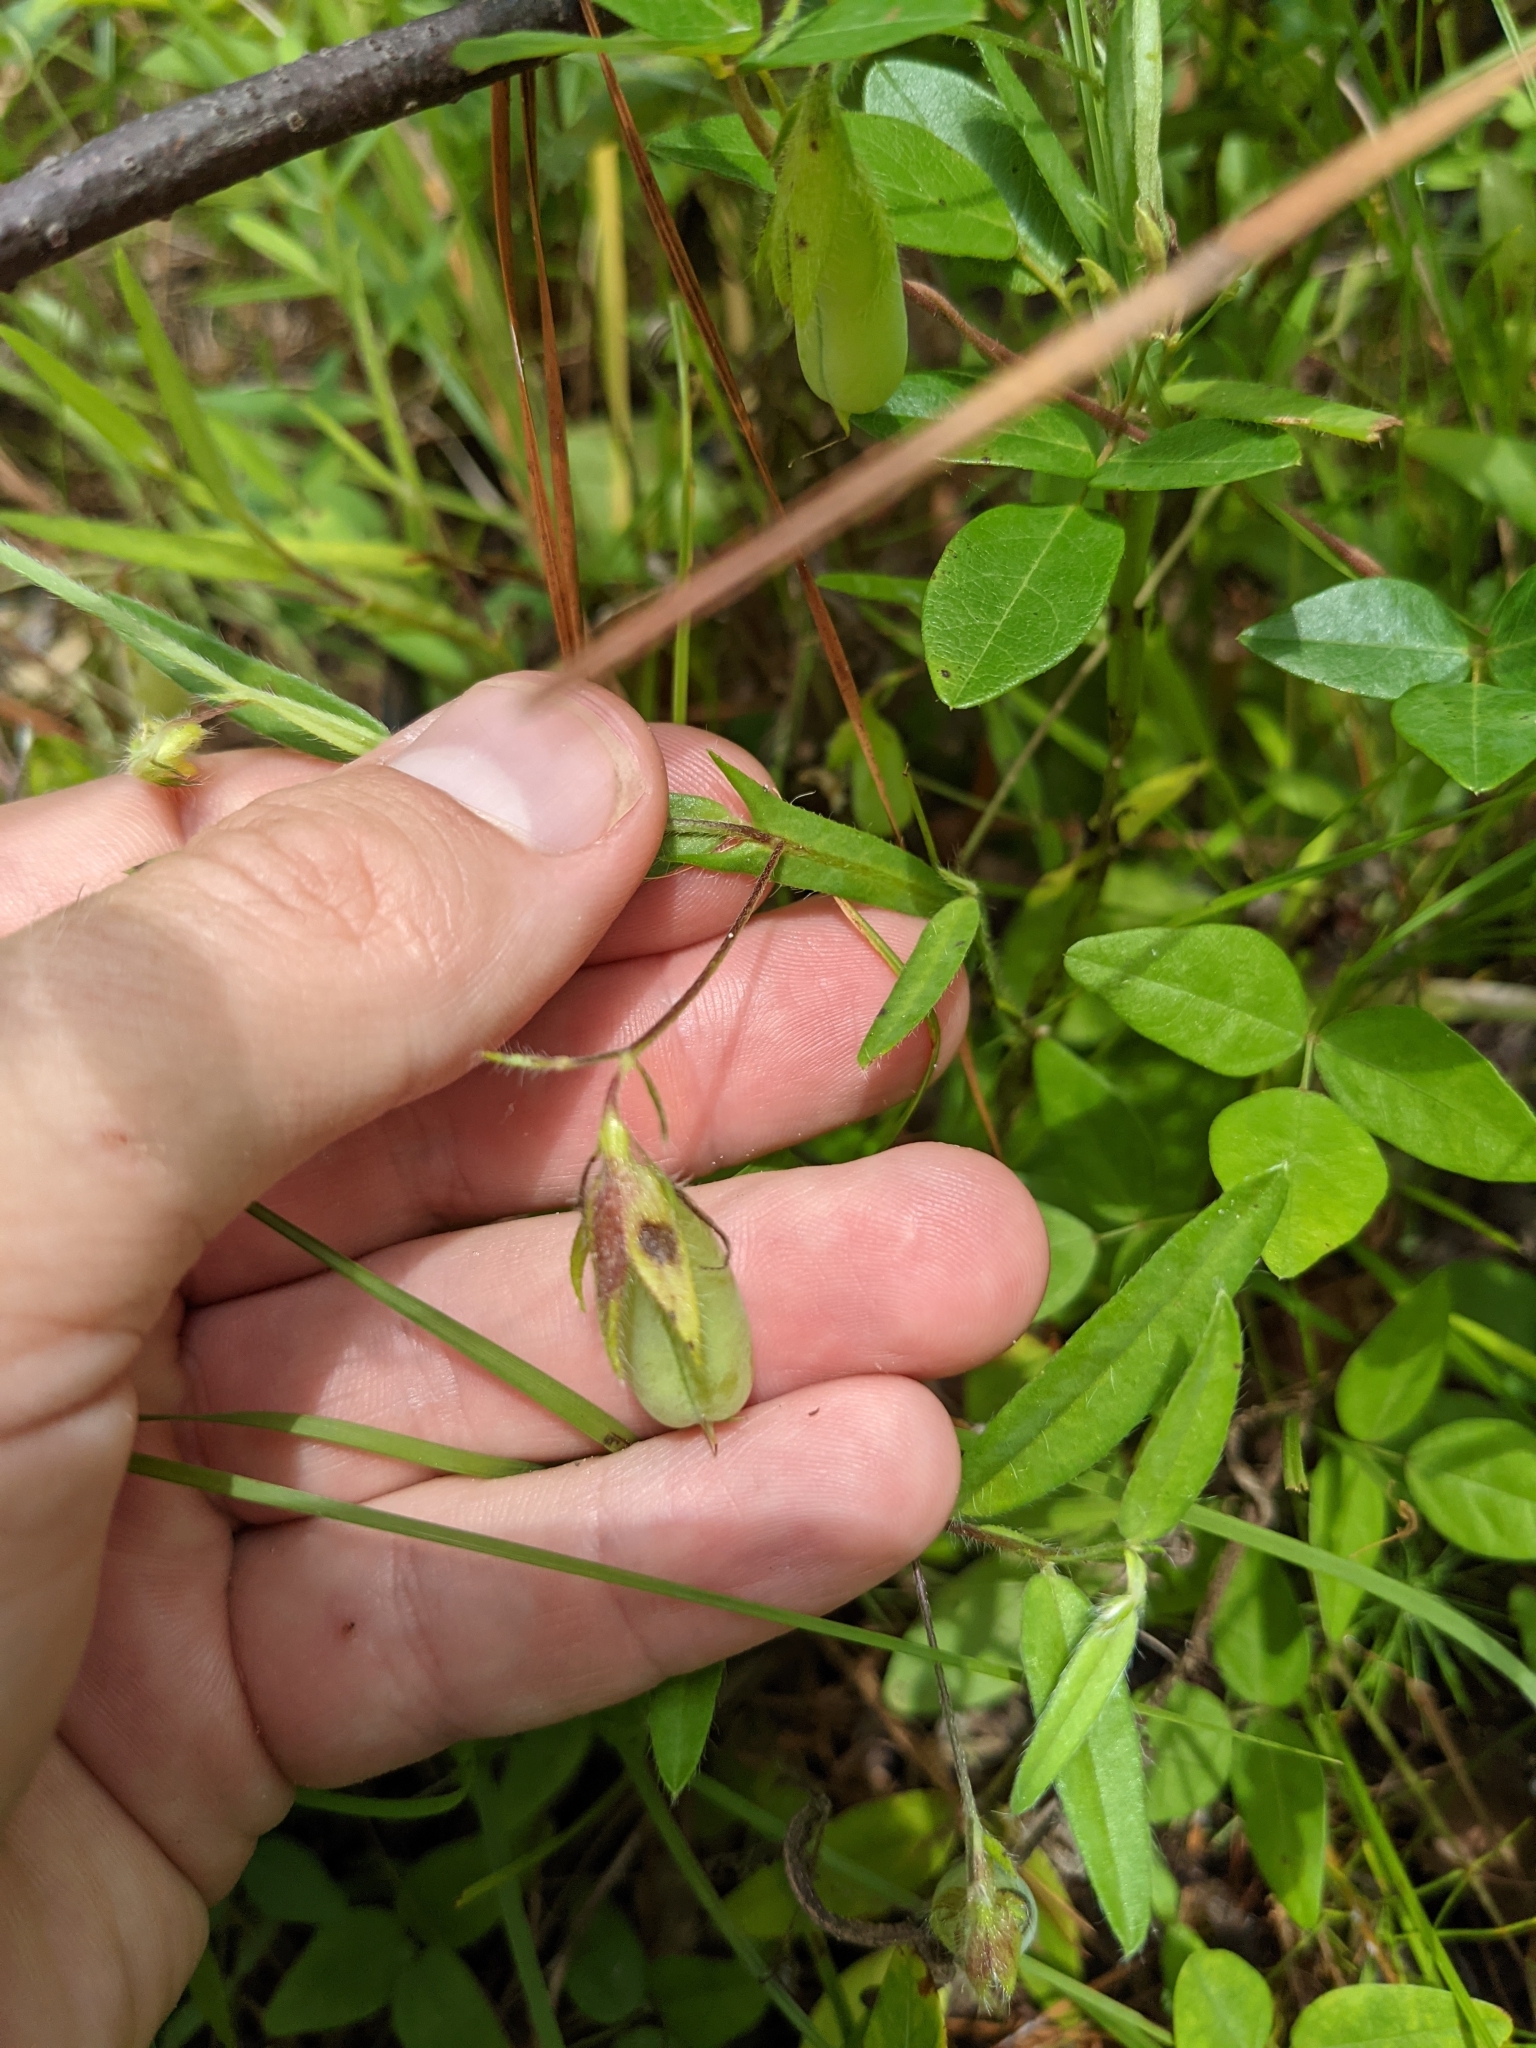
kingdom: Plantae
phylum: Tracheophyta
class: Magnoliopsida
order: Fabales
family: Fabaceae
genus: Crotalaria
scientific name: Crotalaria sagittalis
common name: Arrowhead rattlebox
